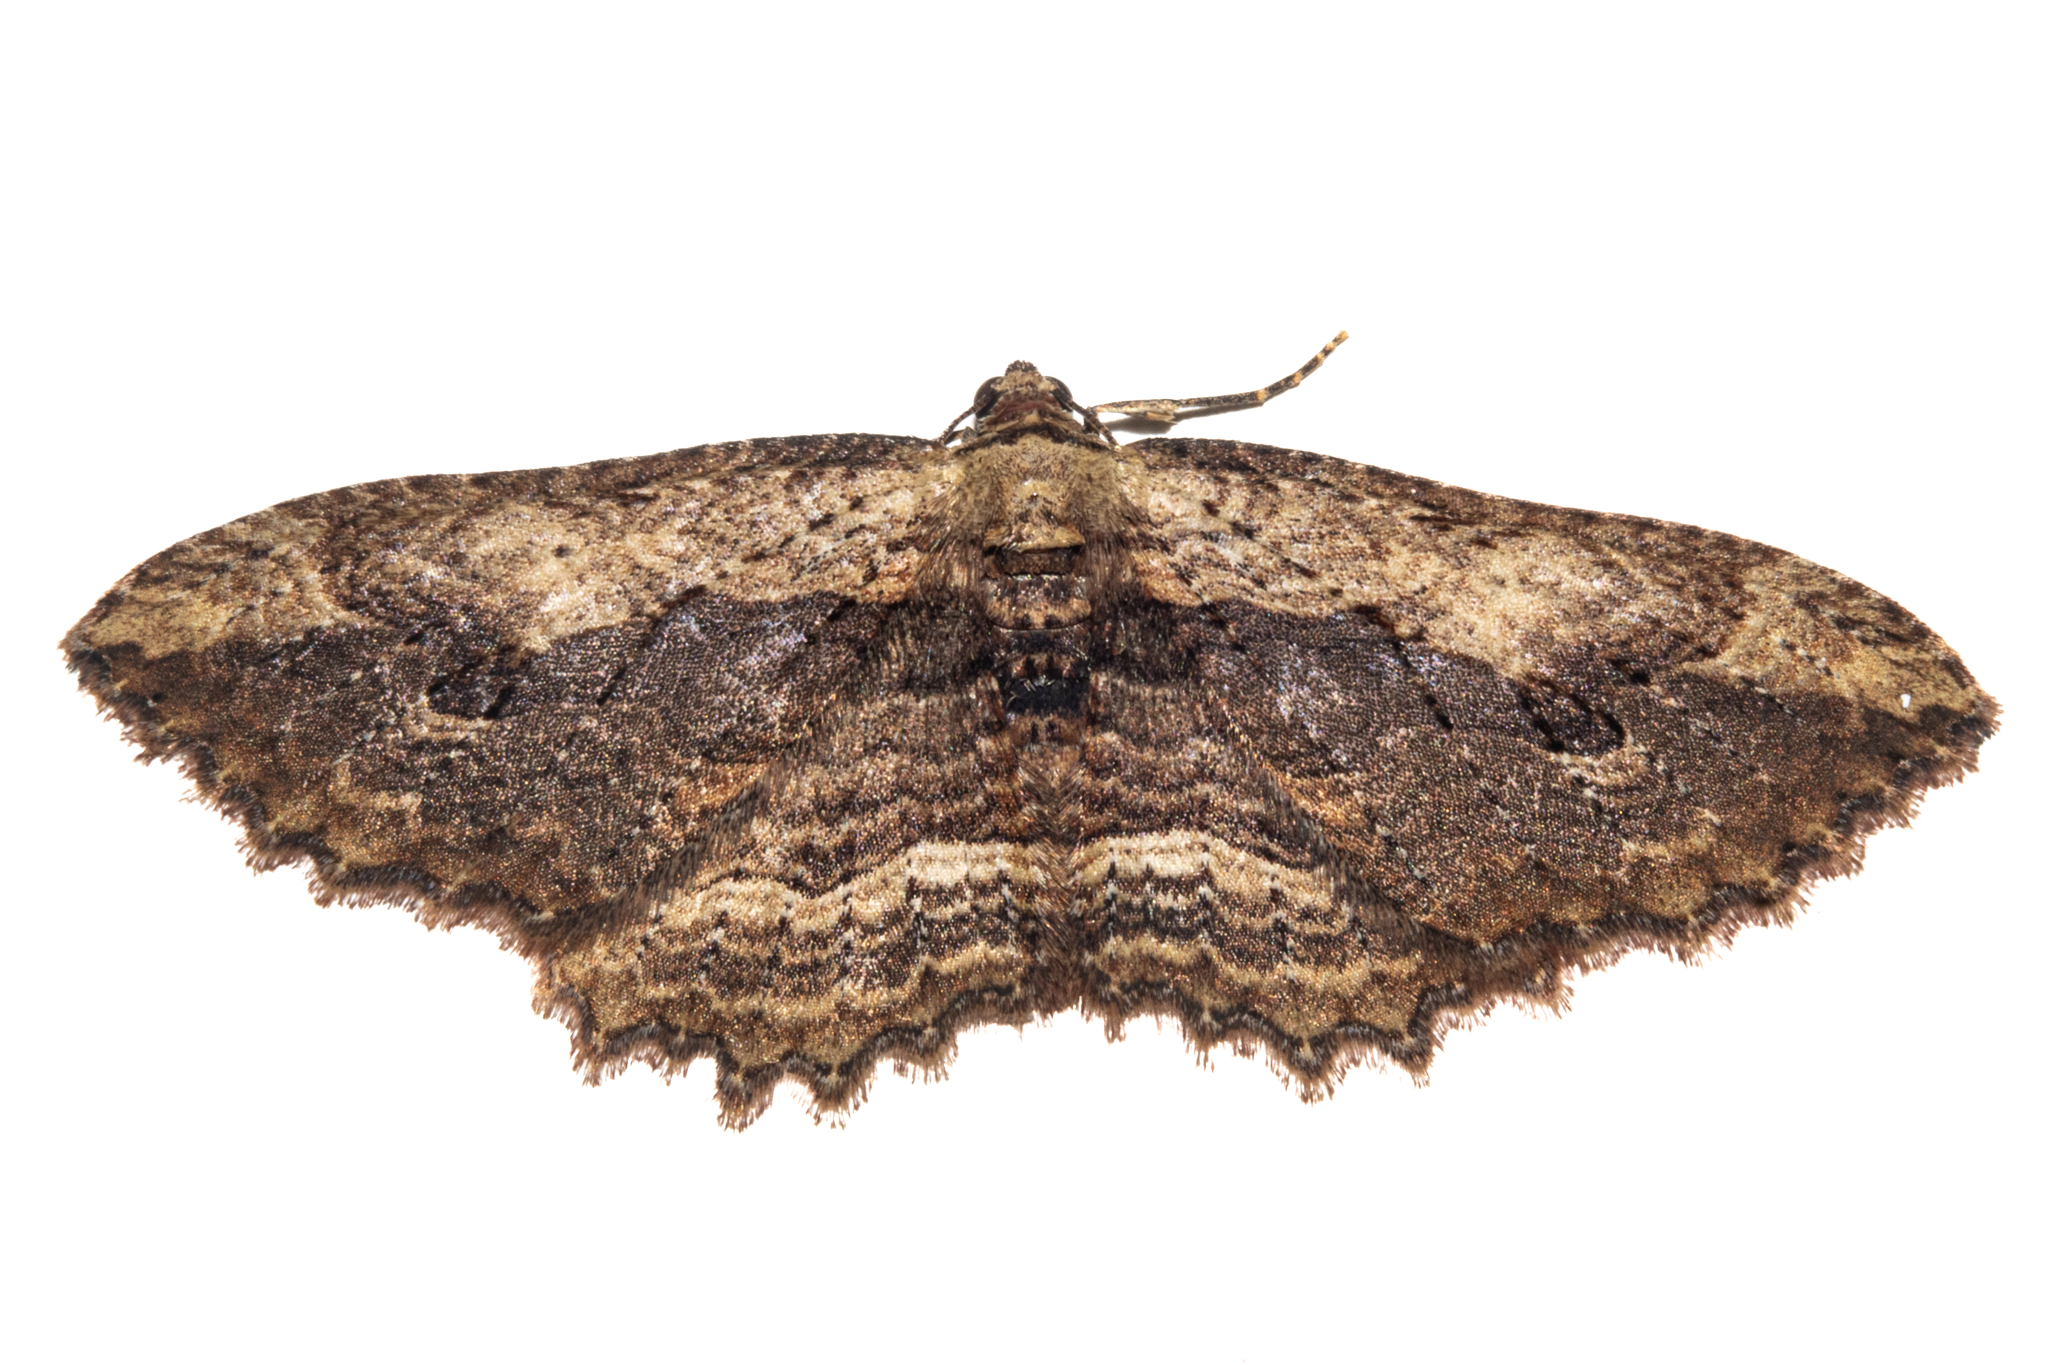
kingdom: Animalia
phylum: Arthropoda
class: Insecta
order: Lepidoptera
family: Geometridae
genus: Austrocidaria
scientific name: Austrocidaria bipartita
